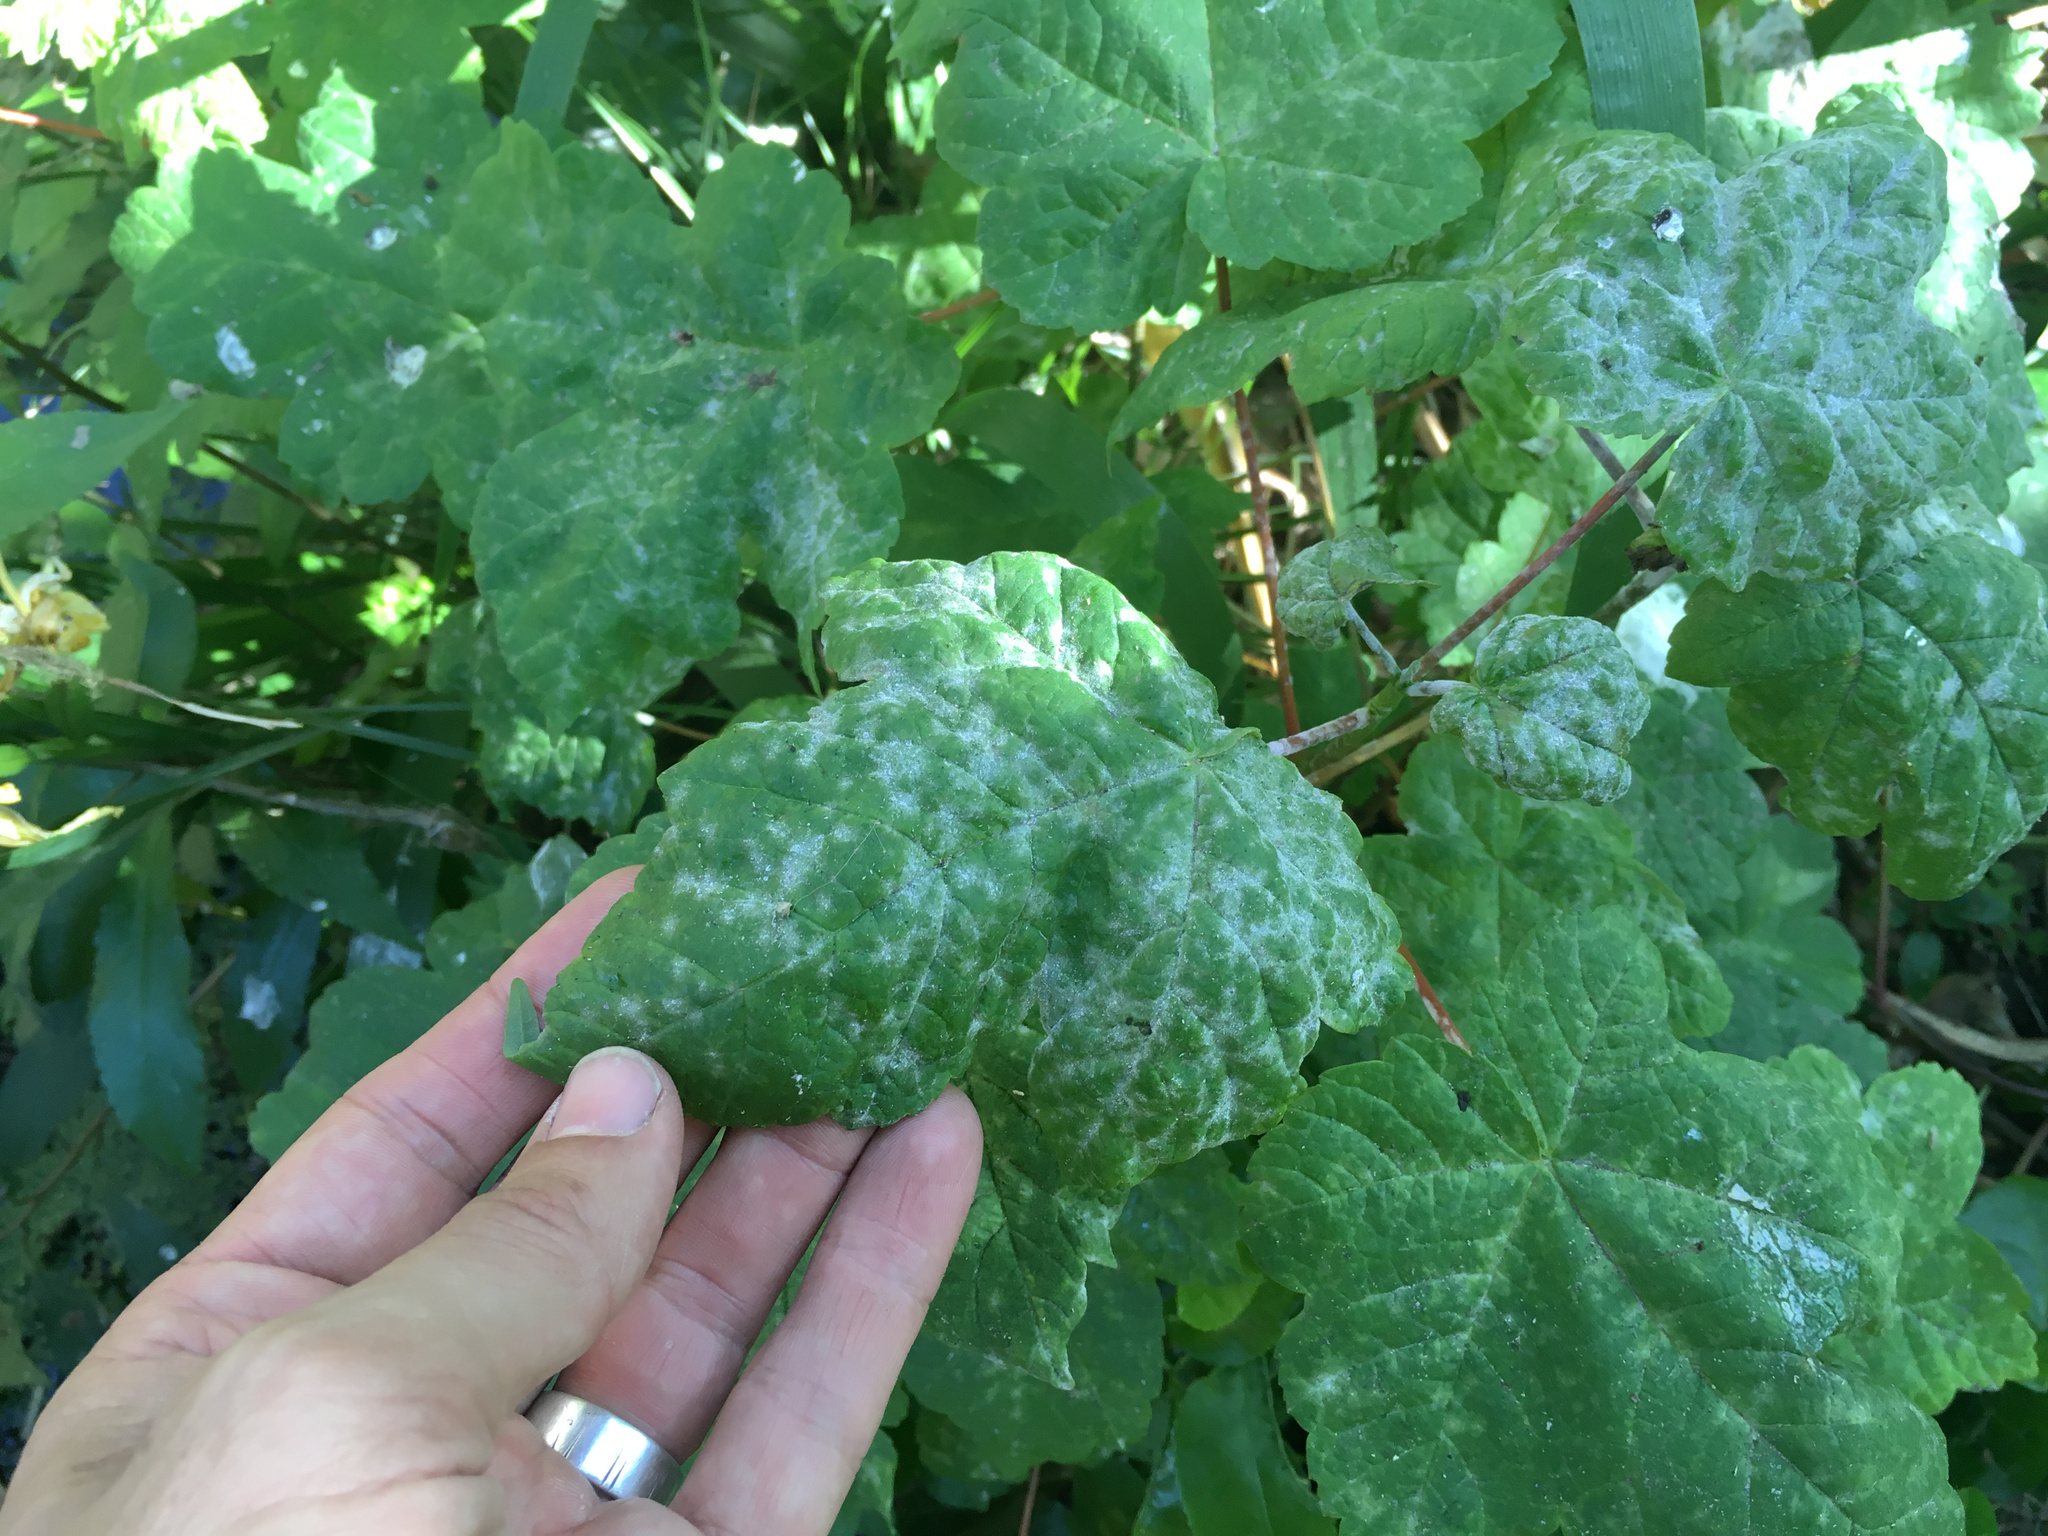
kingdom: Fungi
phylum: Ascomycota
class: Leotiomycetes
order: Helotiales
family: Erysiphaceae
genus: Sawadaea
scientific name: Sawadaea bicornis
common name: Maple mildew
